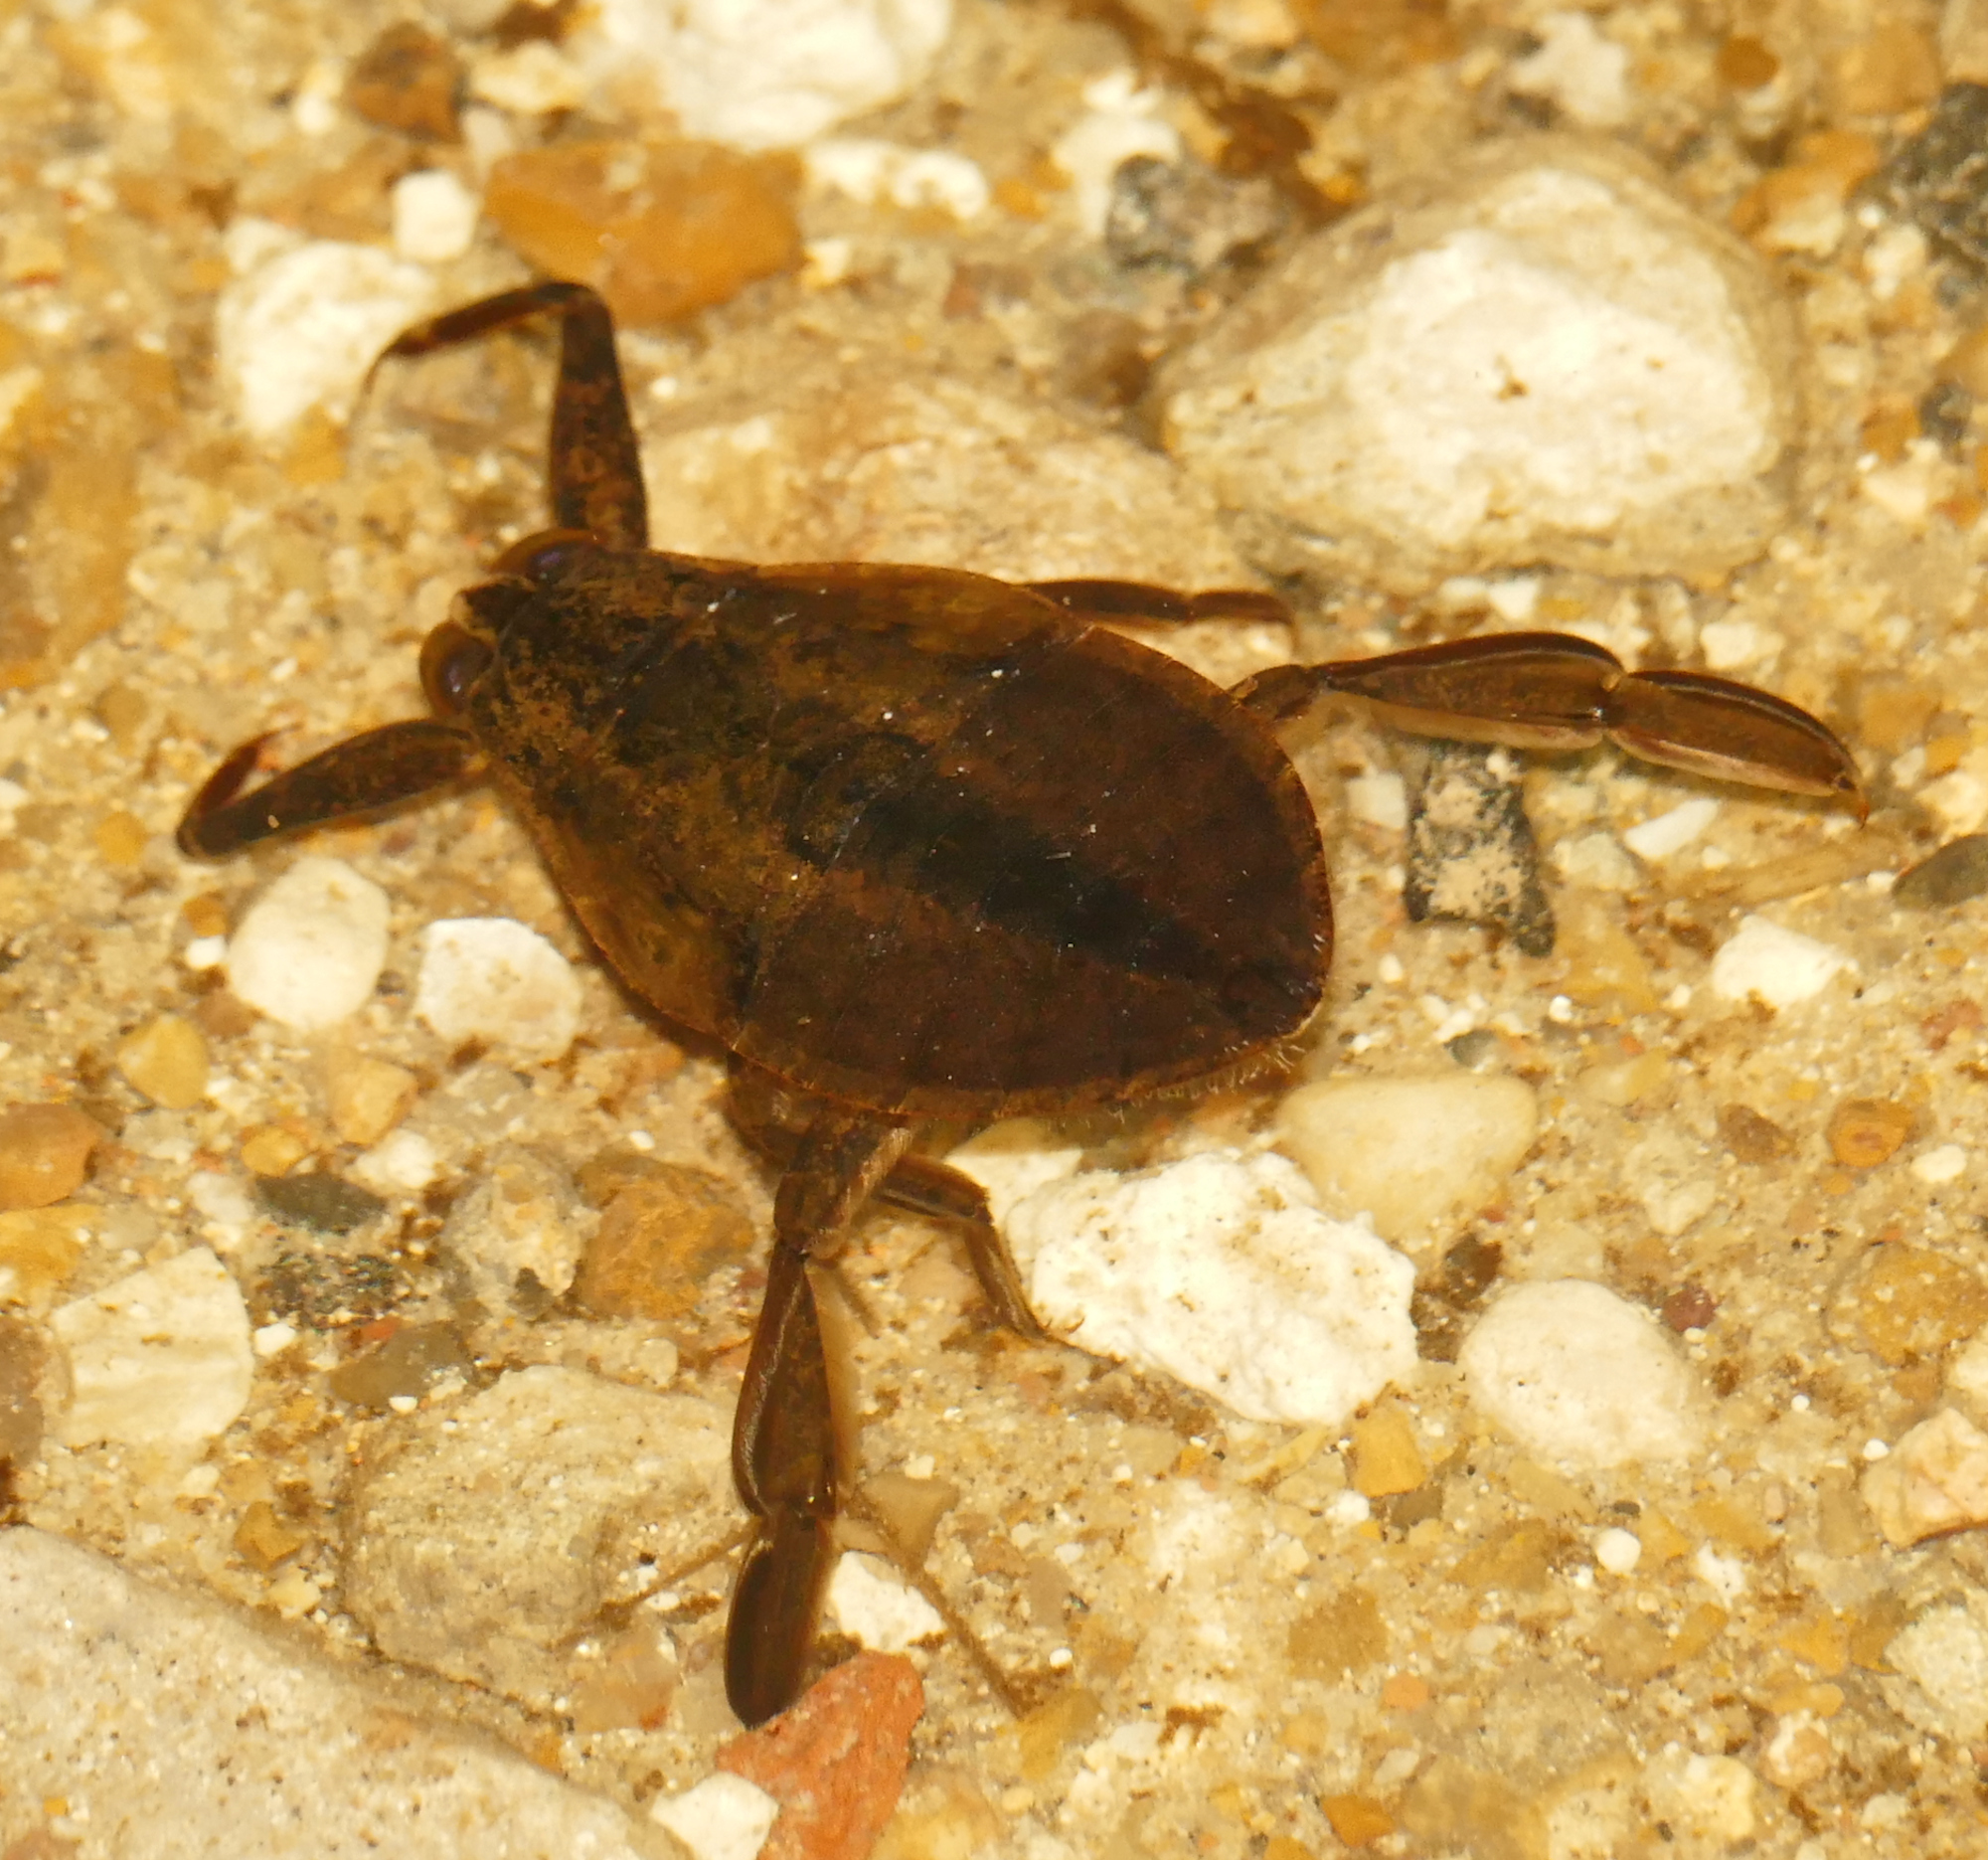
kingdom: Animalia
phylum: Arthropoda
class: Insecta
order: Hemiptera
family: Belostomatidae
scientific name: Belostomatidae
